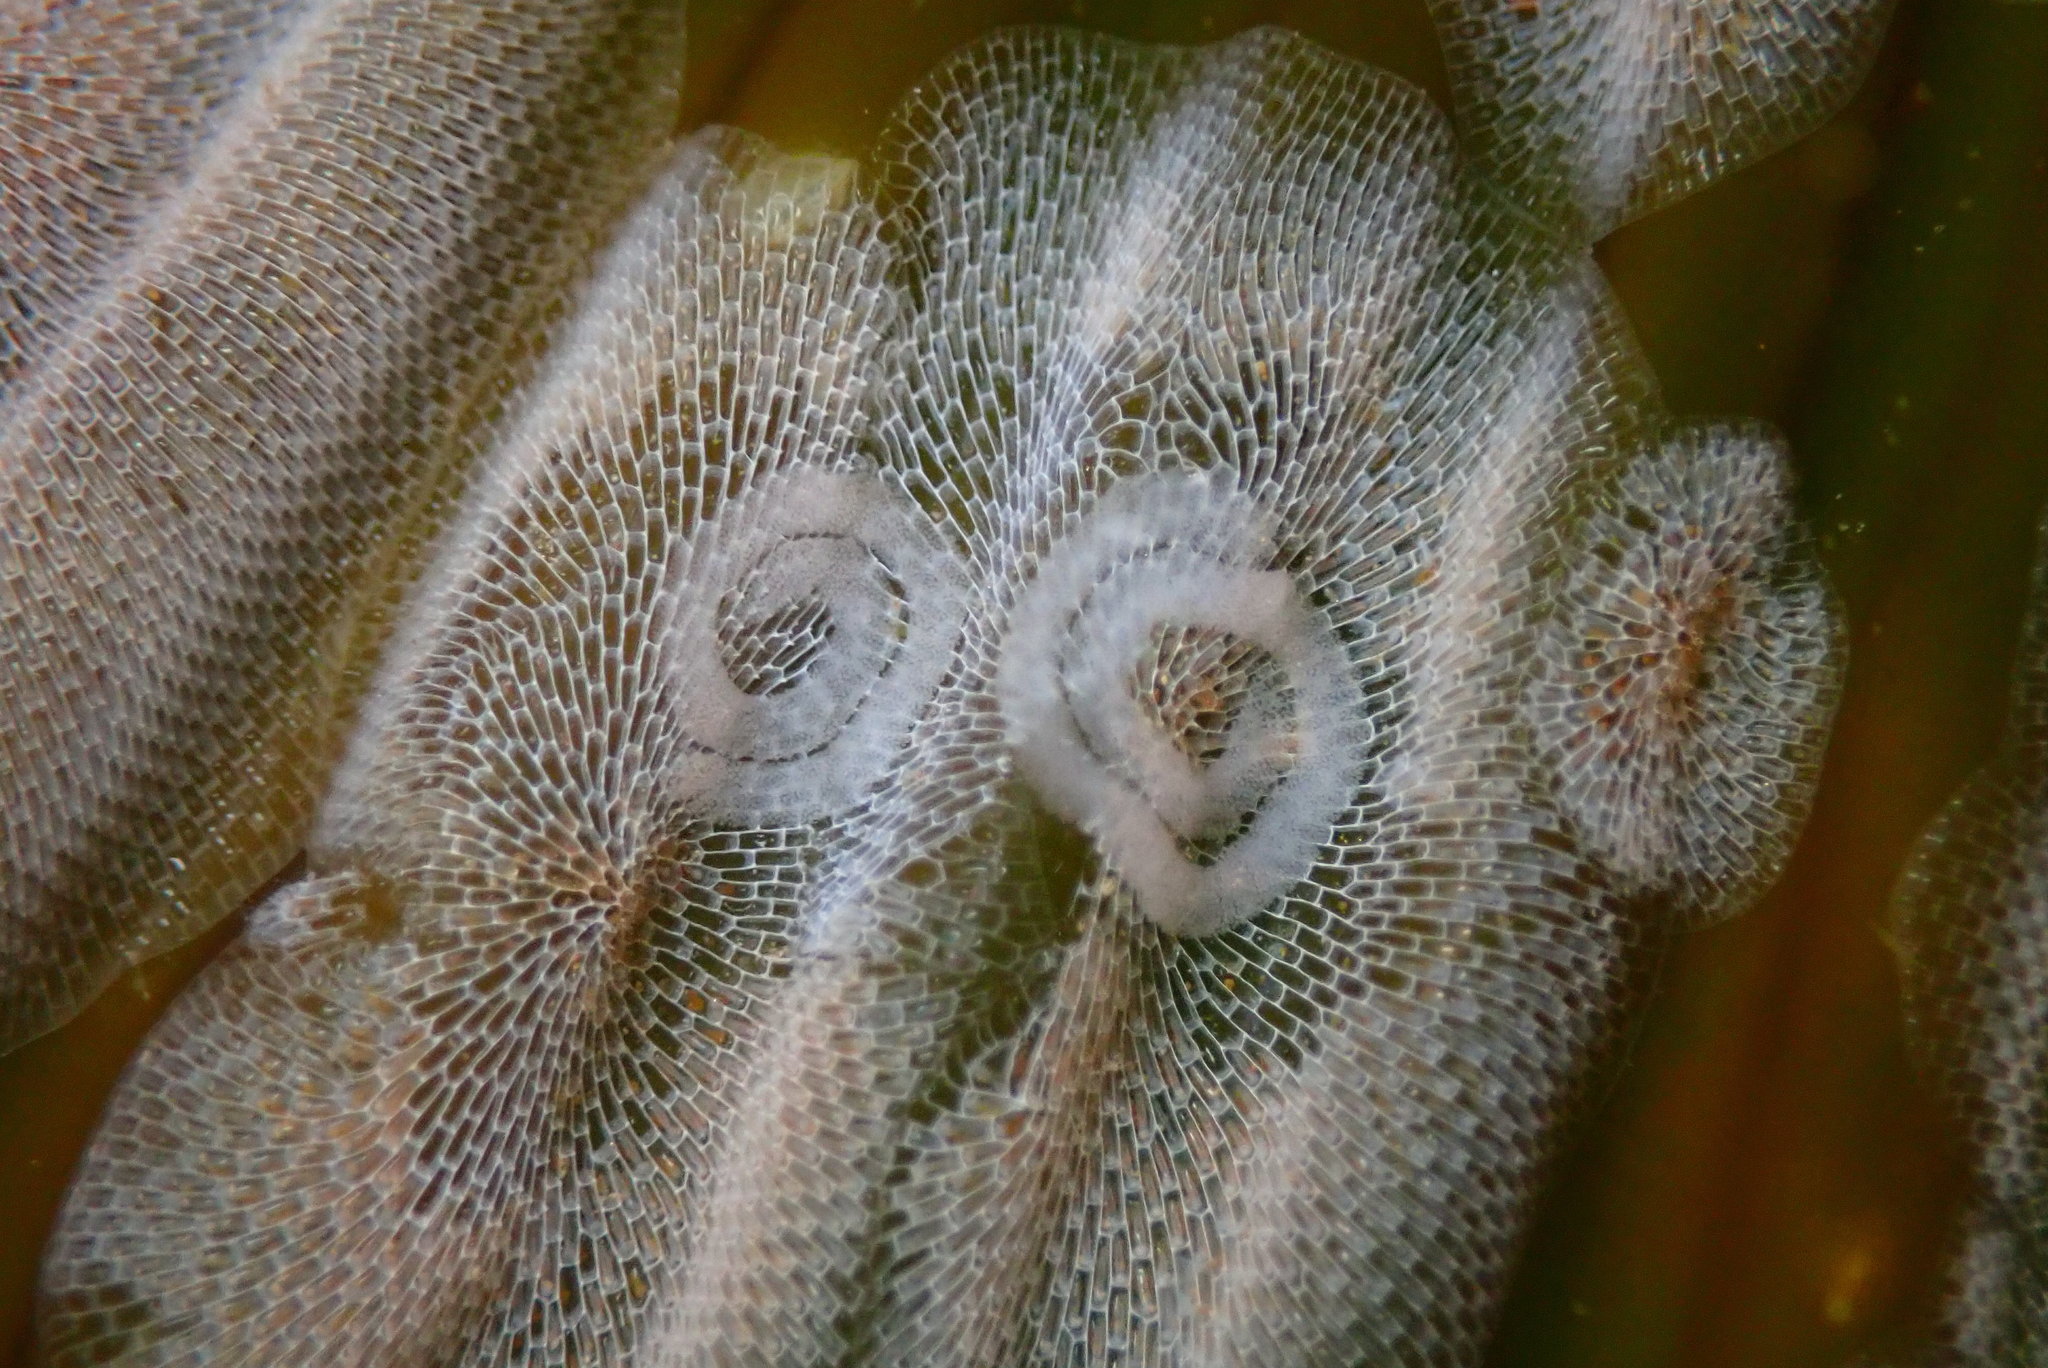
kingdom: Animalia
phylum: Mollusca
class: Gastropoda
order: Nudibranchia
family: Corambidae
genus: Corambe
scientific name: Corambe pacifica
